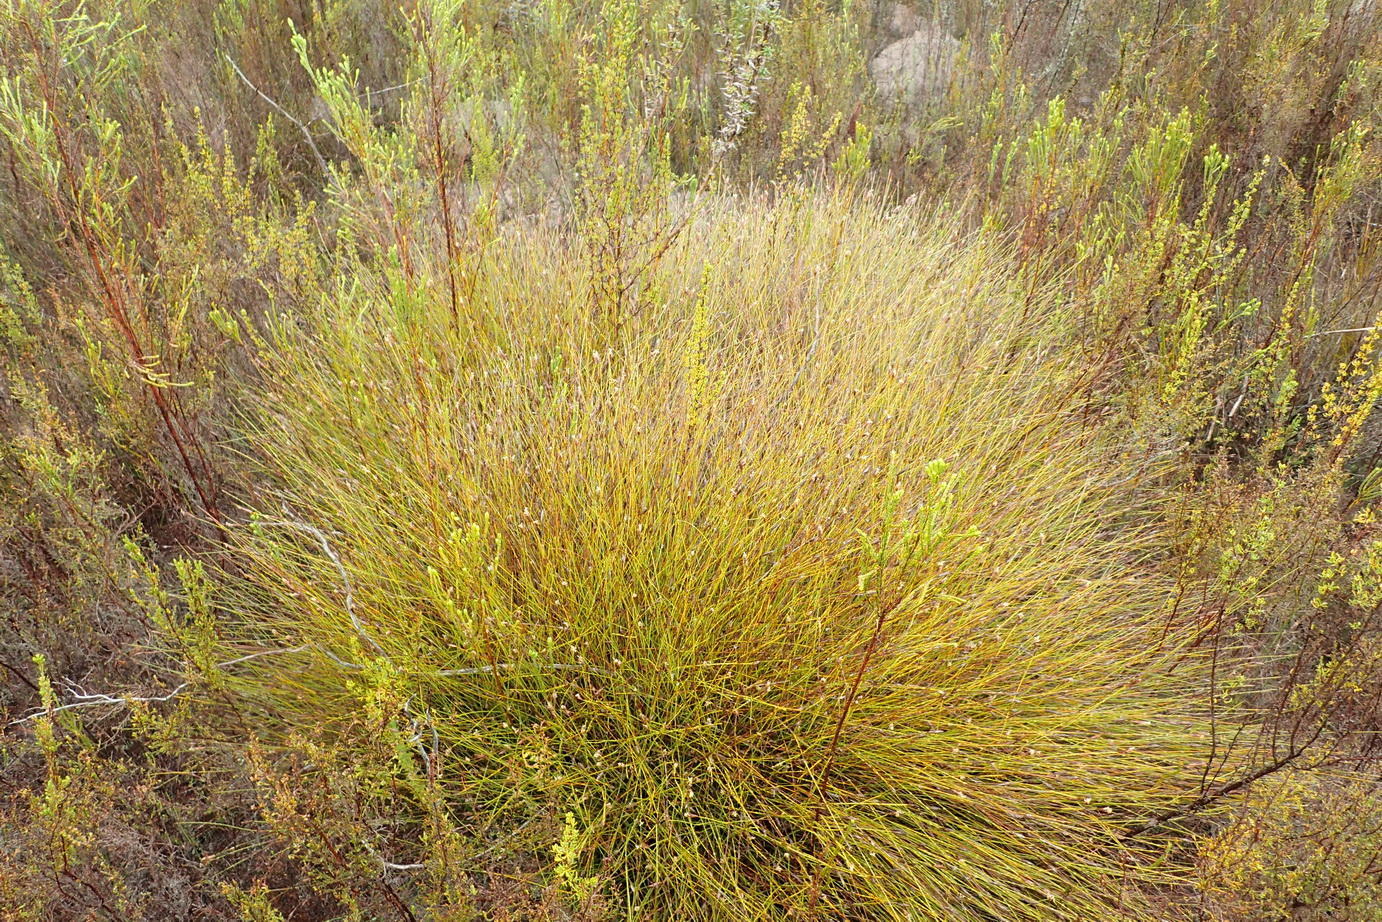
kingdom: Plantae
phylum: Tracheophyta
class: Liliopsida
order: Poales
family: Restionaceae
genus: Hypodiscus
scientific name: Hypodiscus willdenowia
